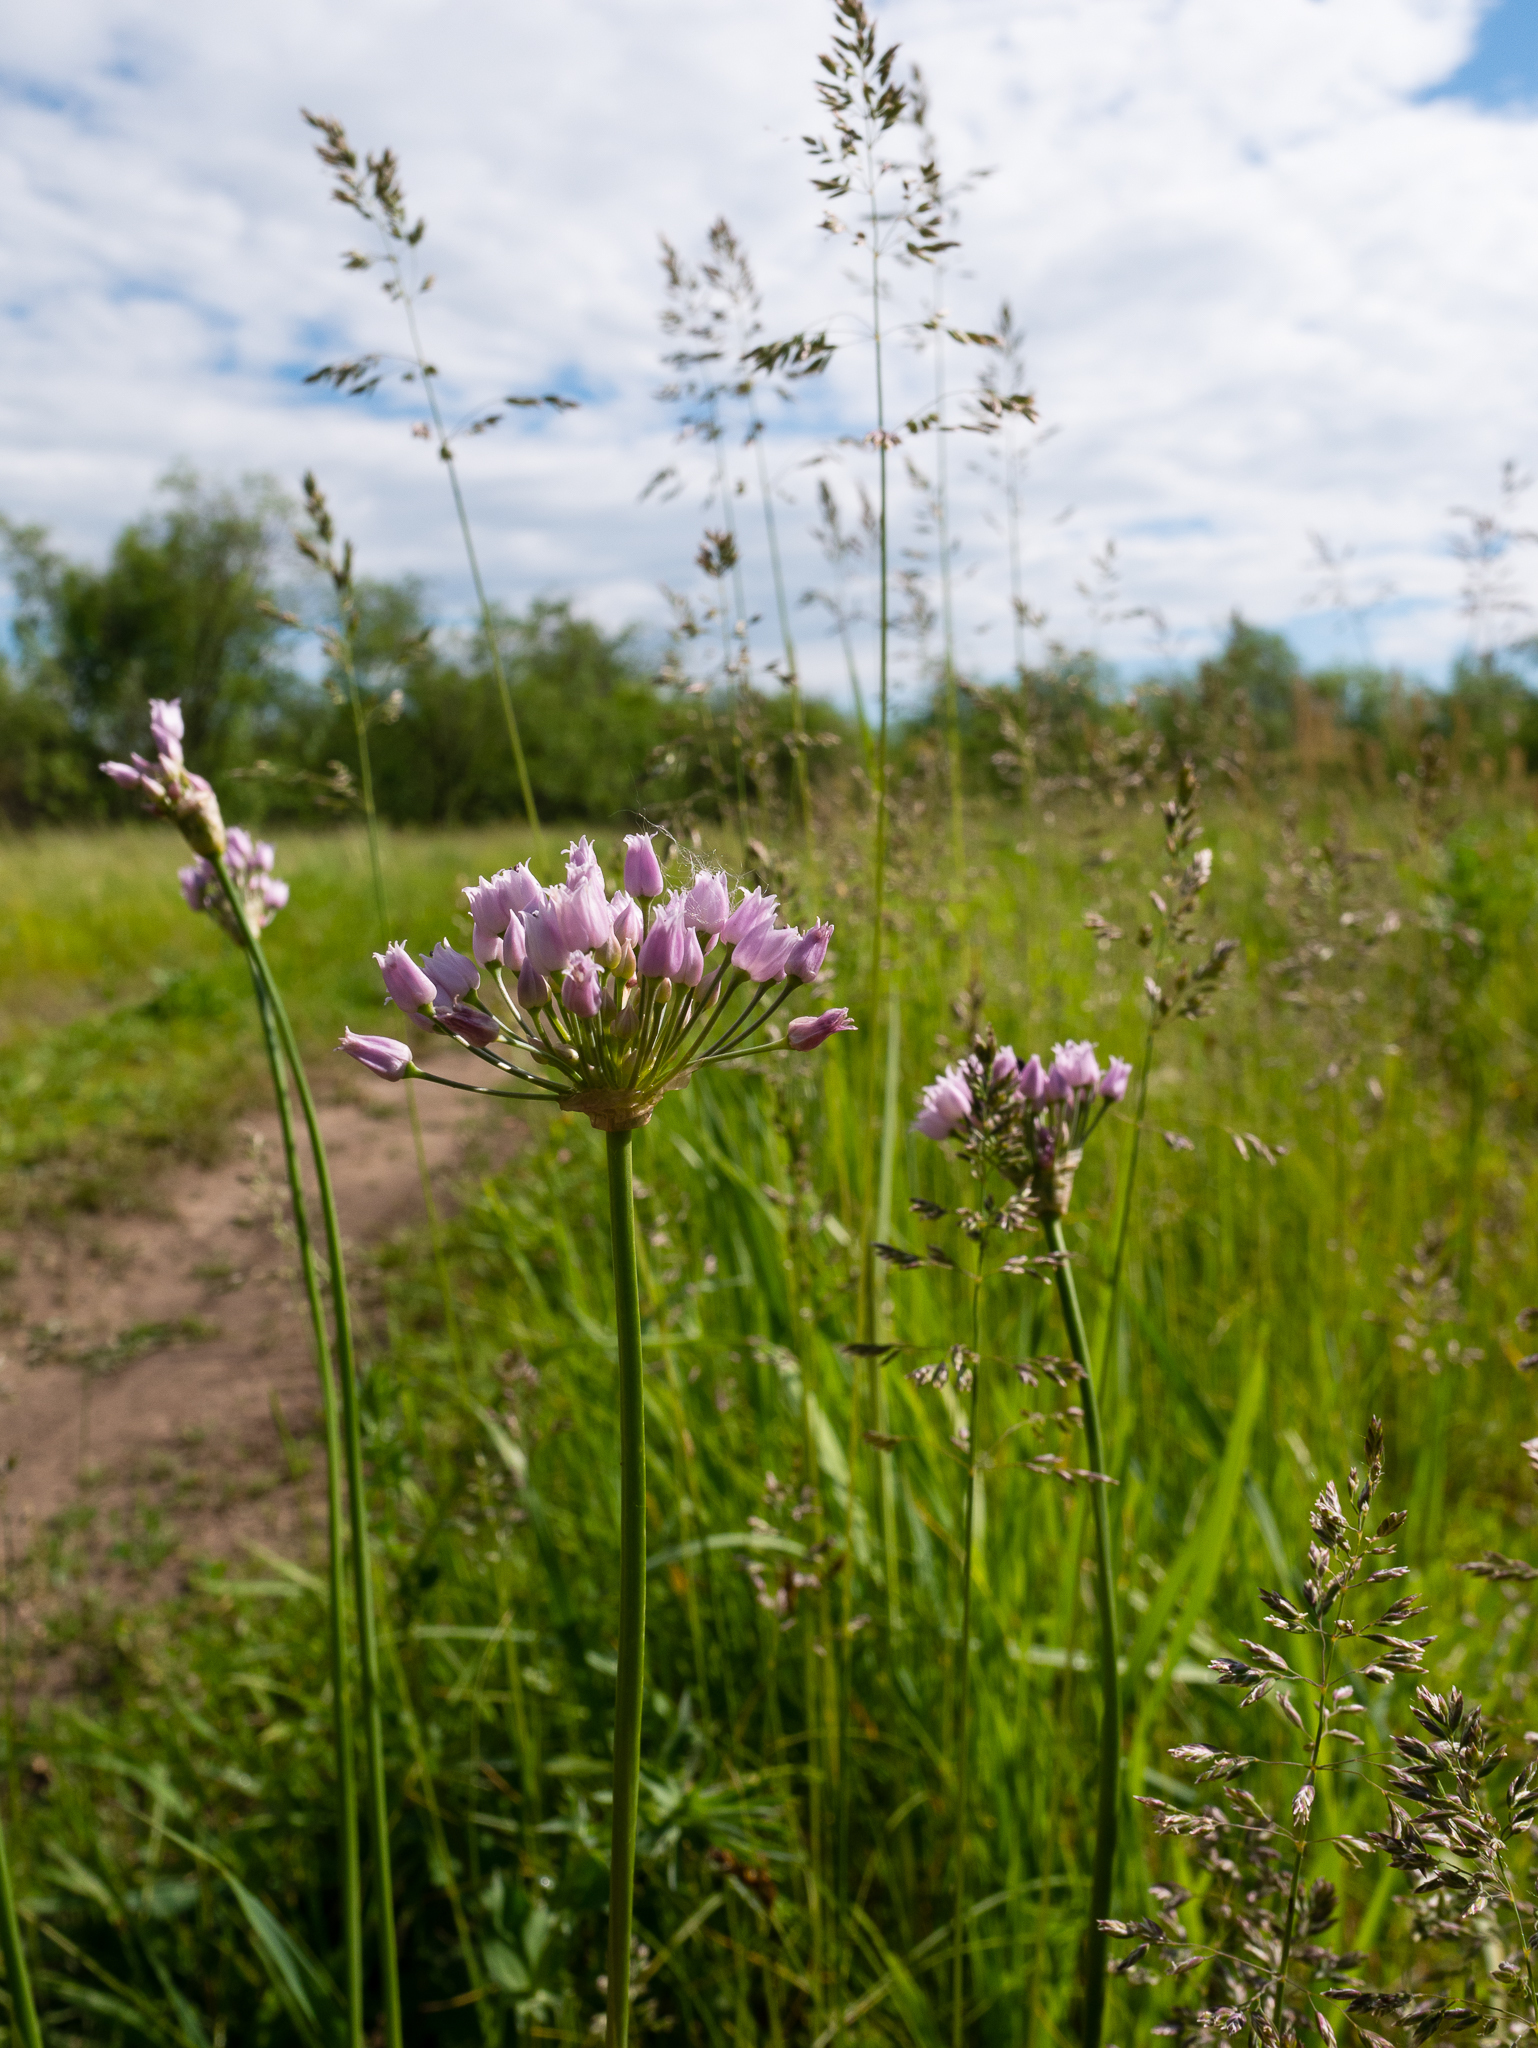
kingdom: Plantae
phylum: Tracheophyta
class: Liliopsida
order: Asparagales
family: Amaryllidaceae
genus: Allium
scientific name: Allium angulosum
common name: Mouse garlic
